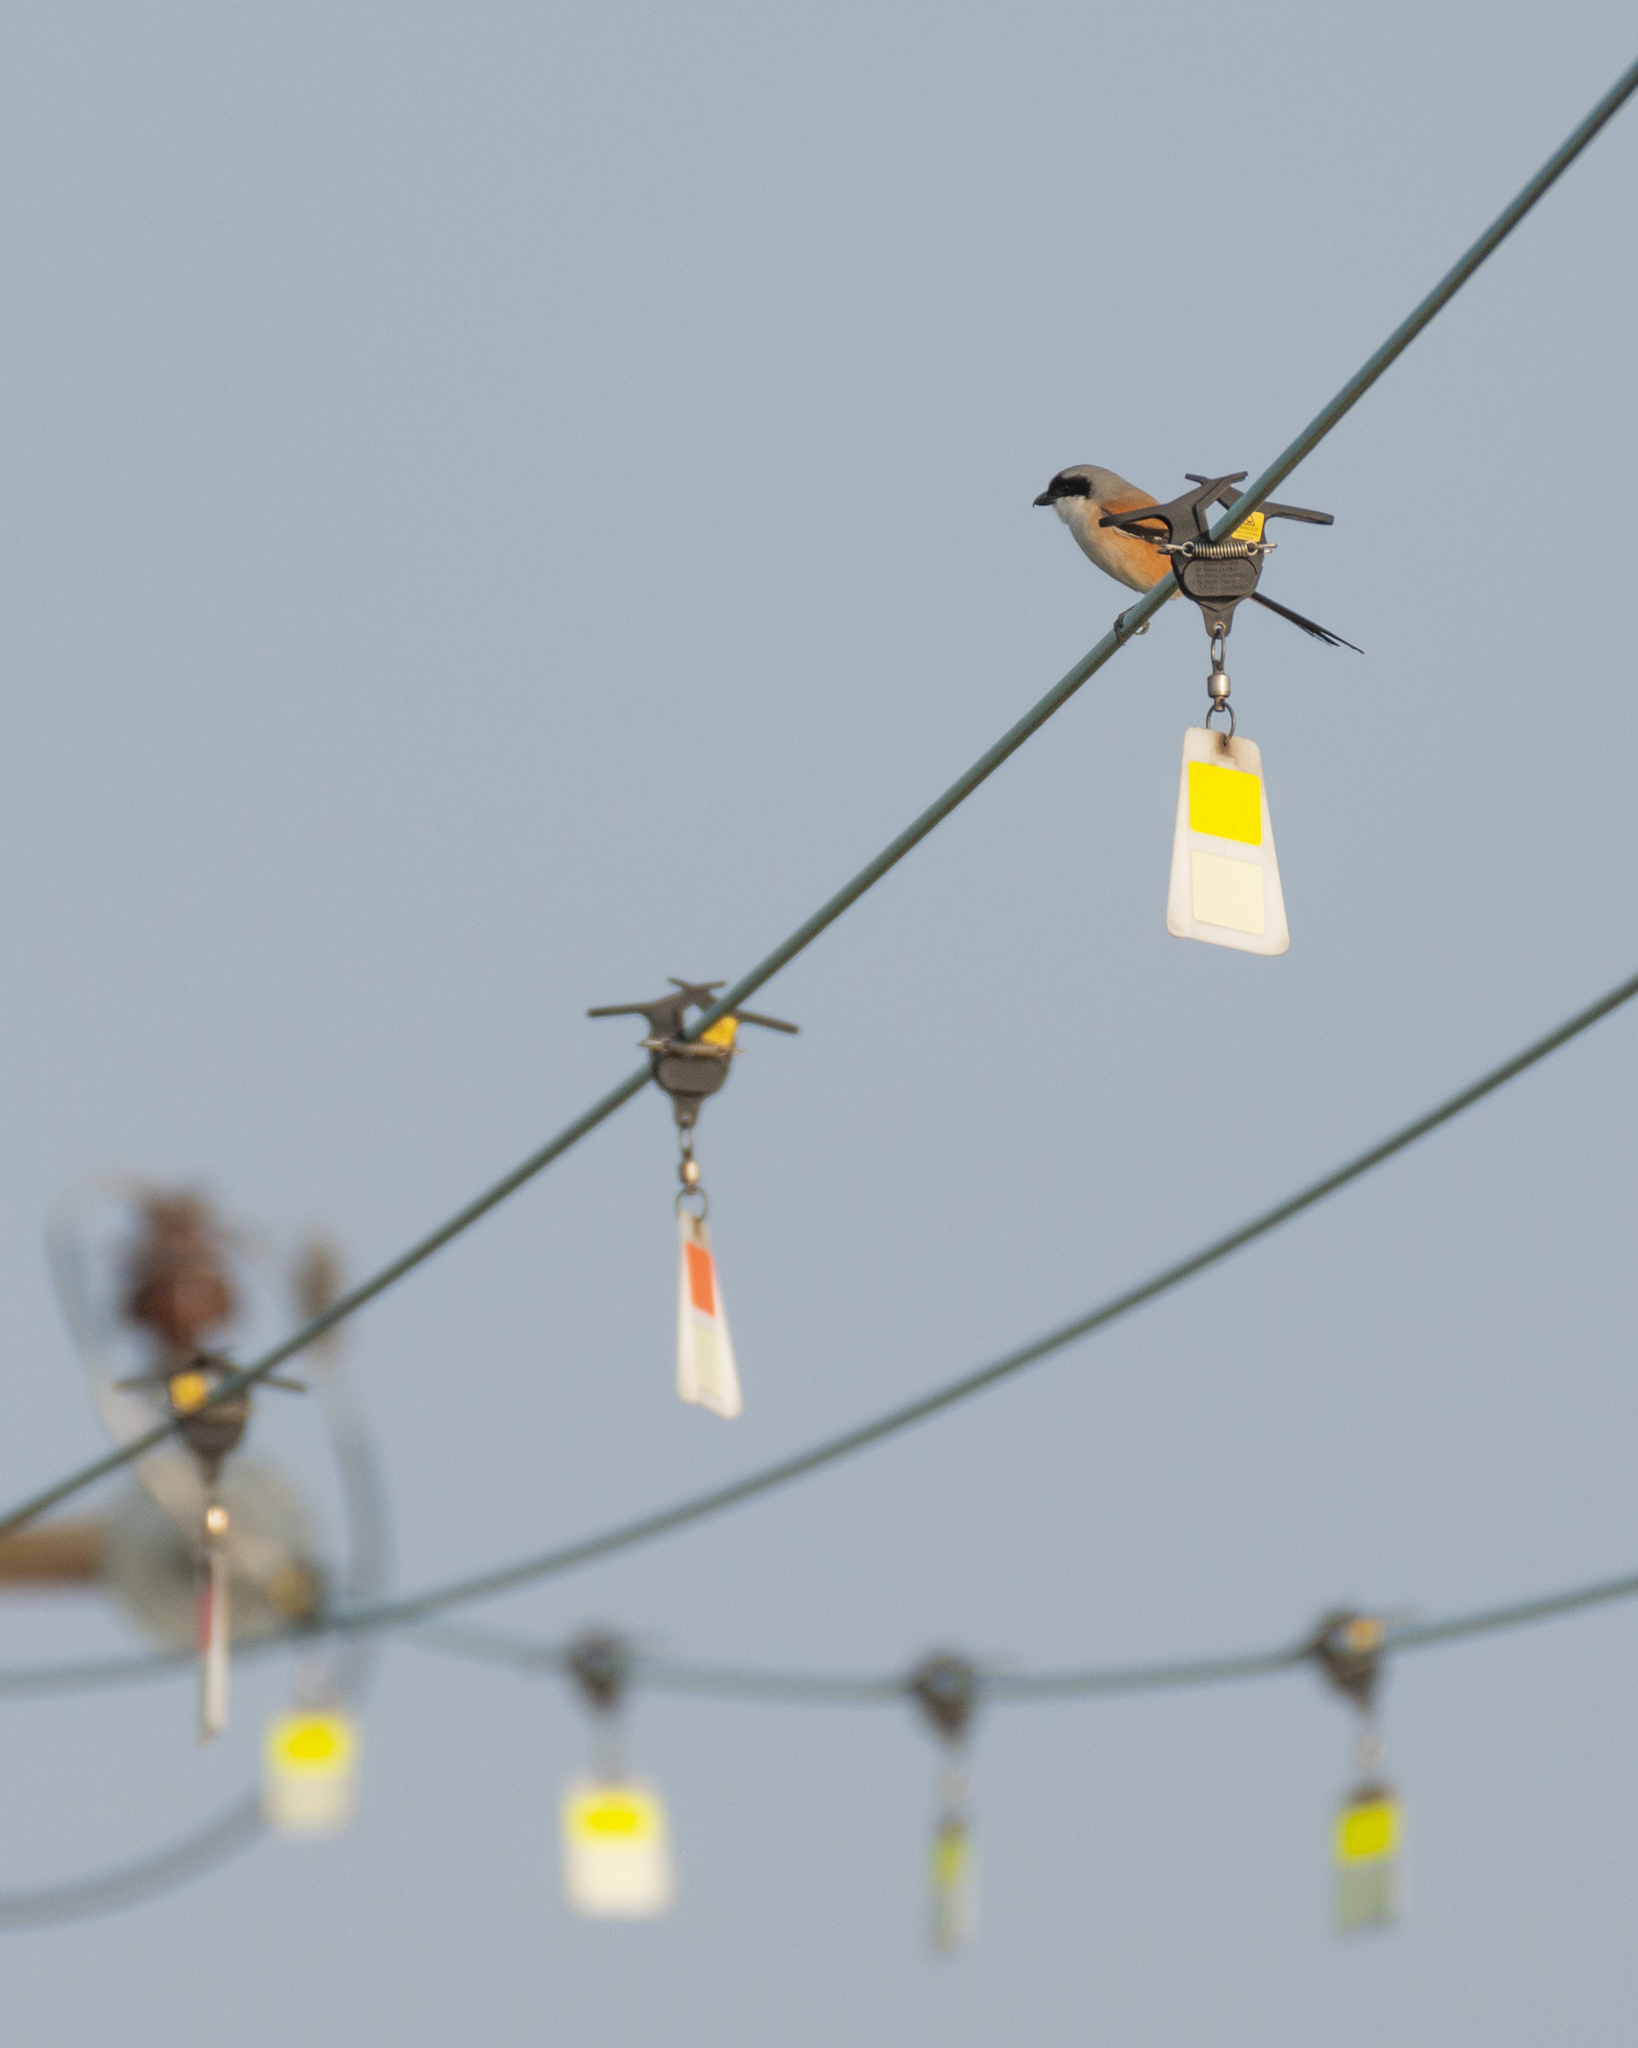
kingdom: Animalia
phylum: Chordata
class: Aves
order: Passeriformes
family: Laniidae
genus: Lanius
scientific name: Lanius schach
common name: Long-tailed shrike
